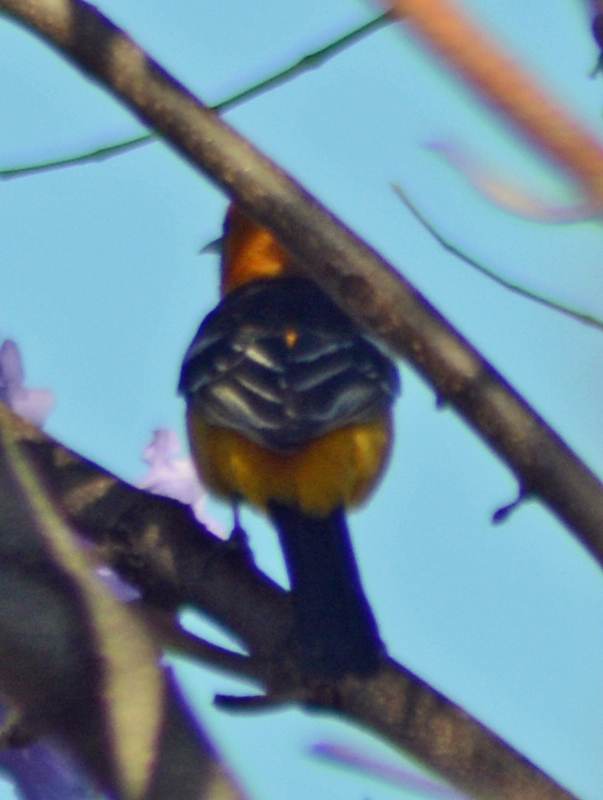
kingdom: Animalia
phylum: Chordata
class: Aves
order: Passeriformes
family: Icteridae
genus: Icterus
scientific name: Icterus cucullatus
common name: Hooded oriole
